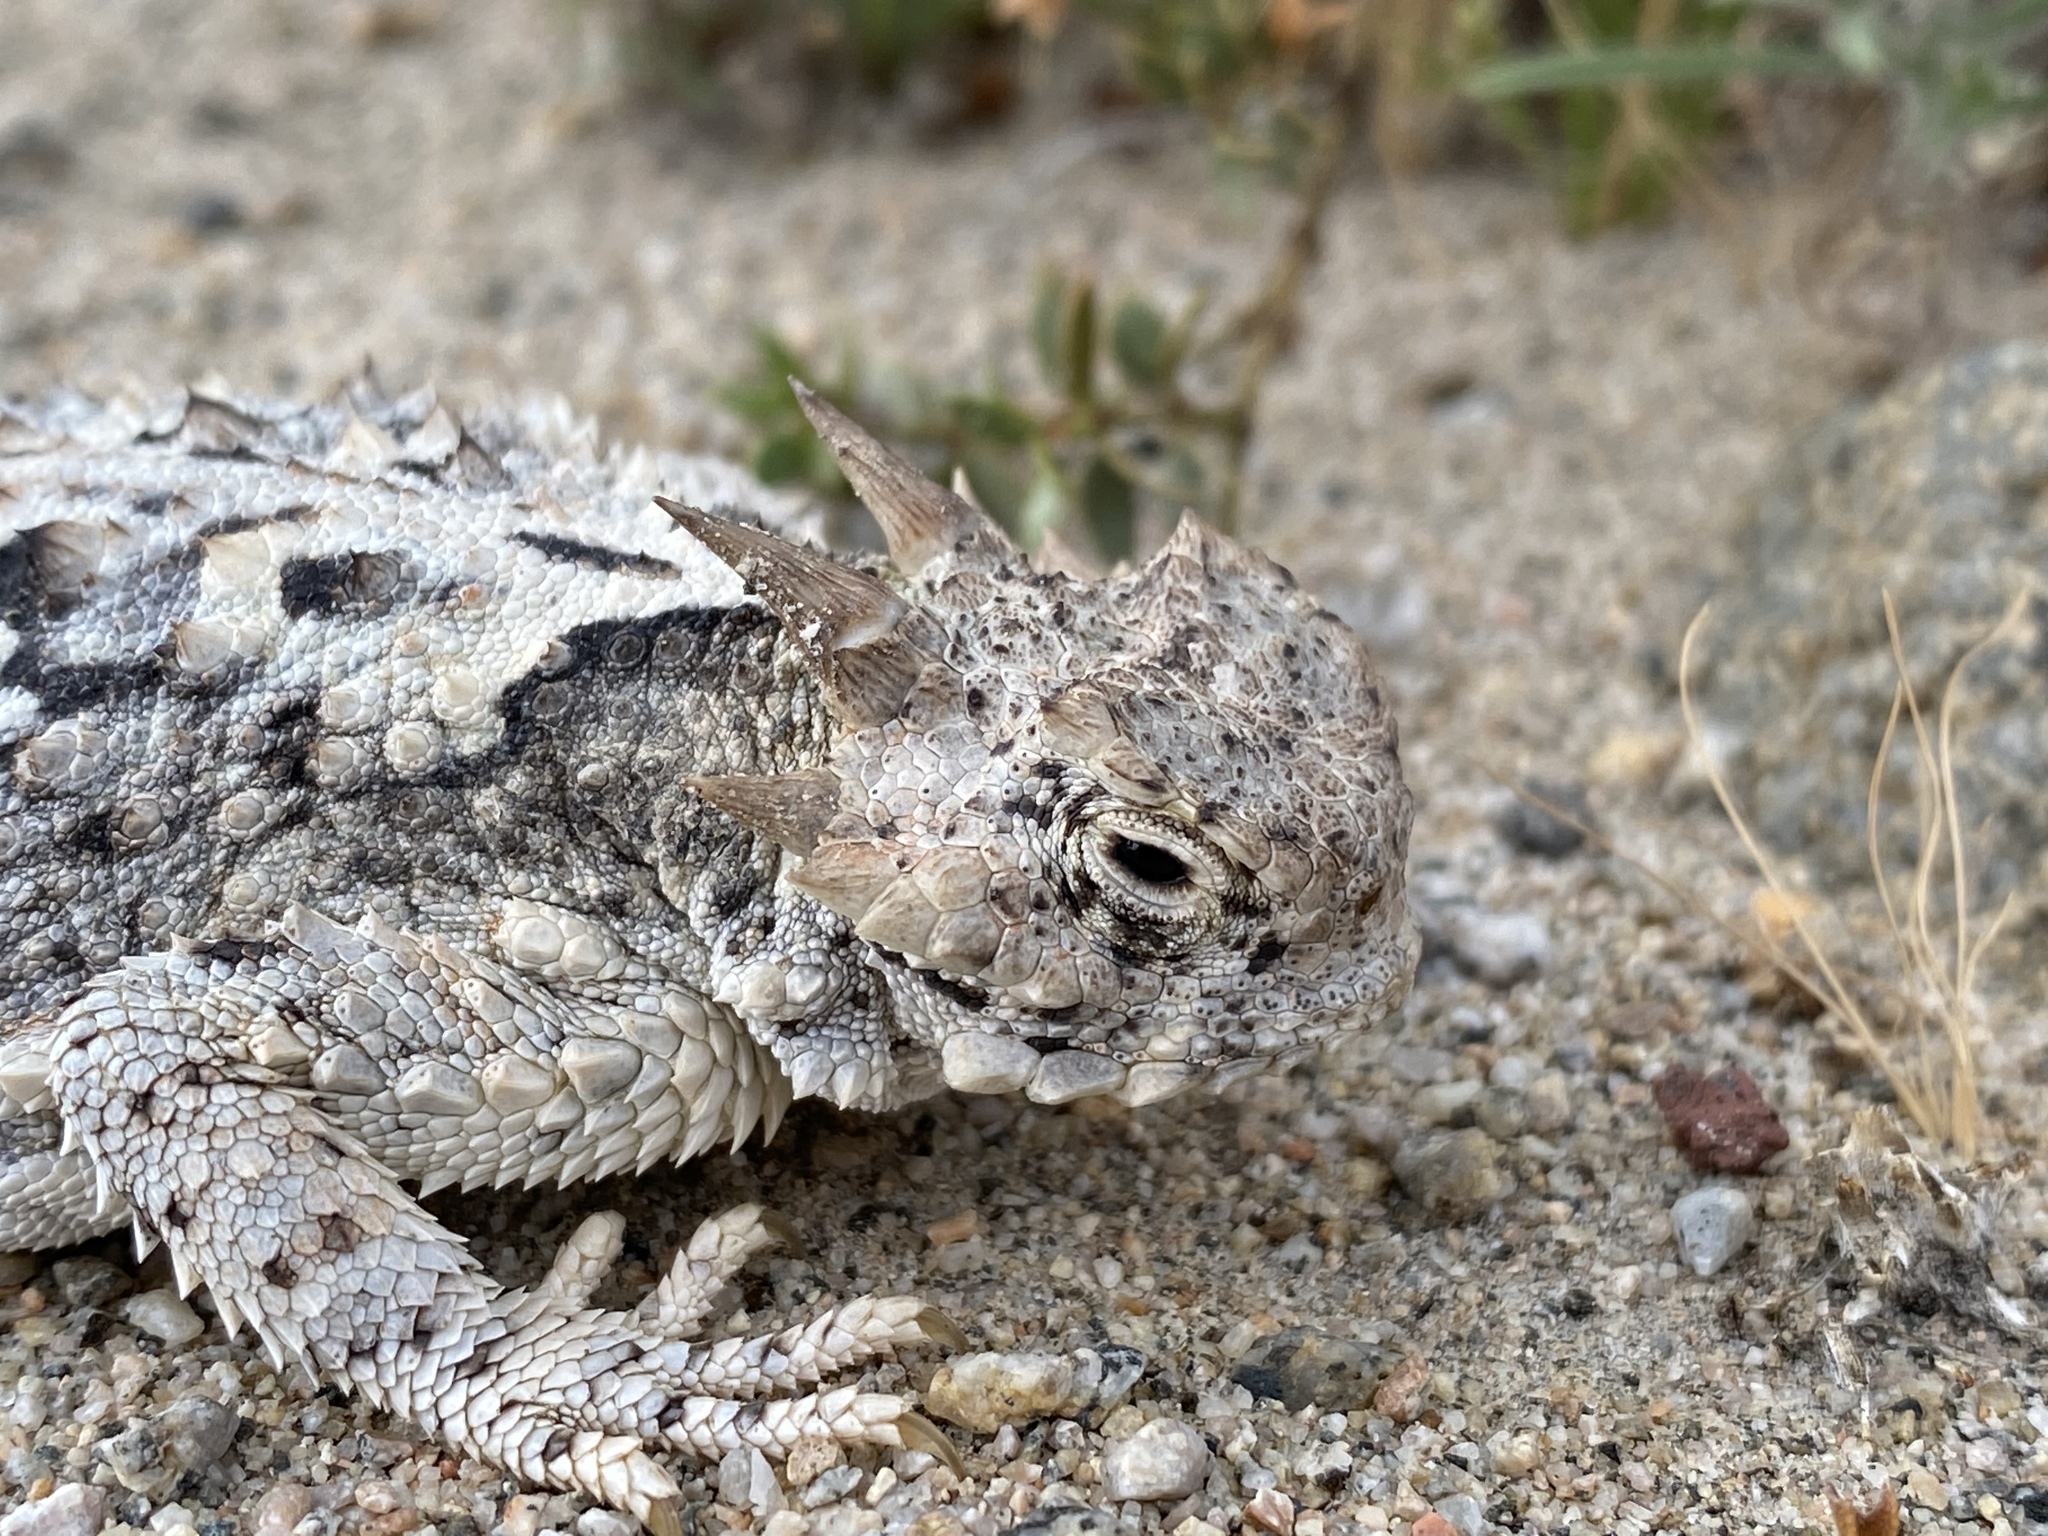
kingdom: Animalia
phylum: Chordata
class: Squamata
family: Phrynosomatidae
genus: Phrynosoma
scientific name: Phrynosoma platyrhinos
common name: Desert horned lizard
